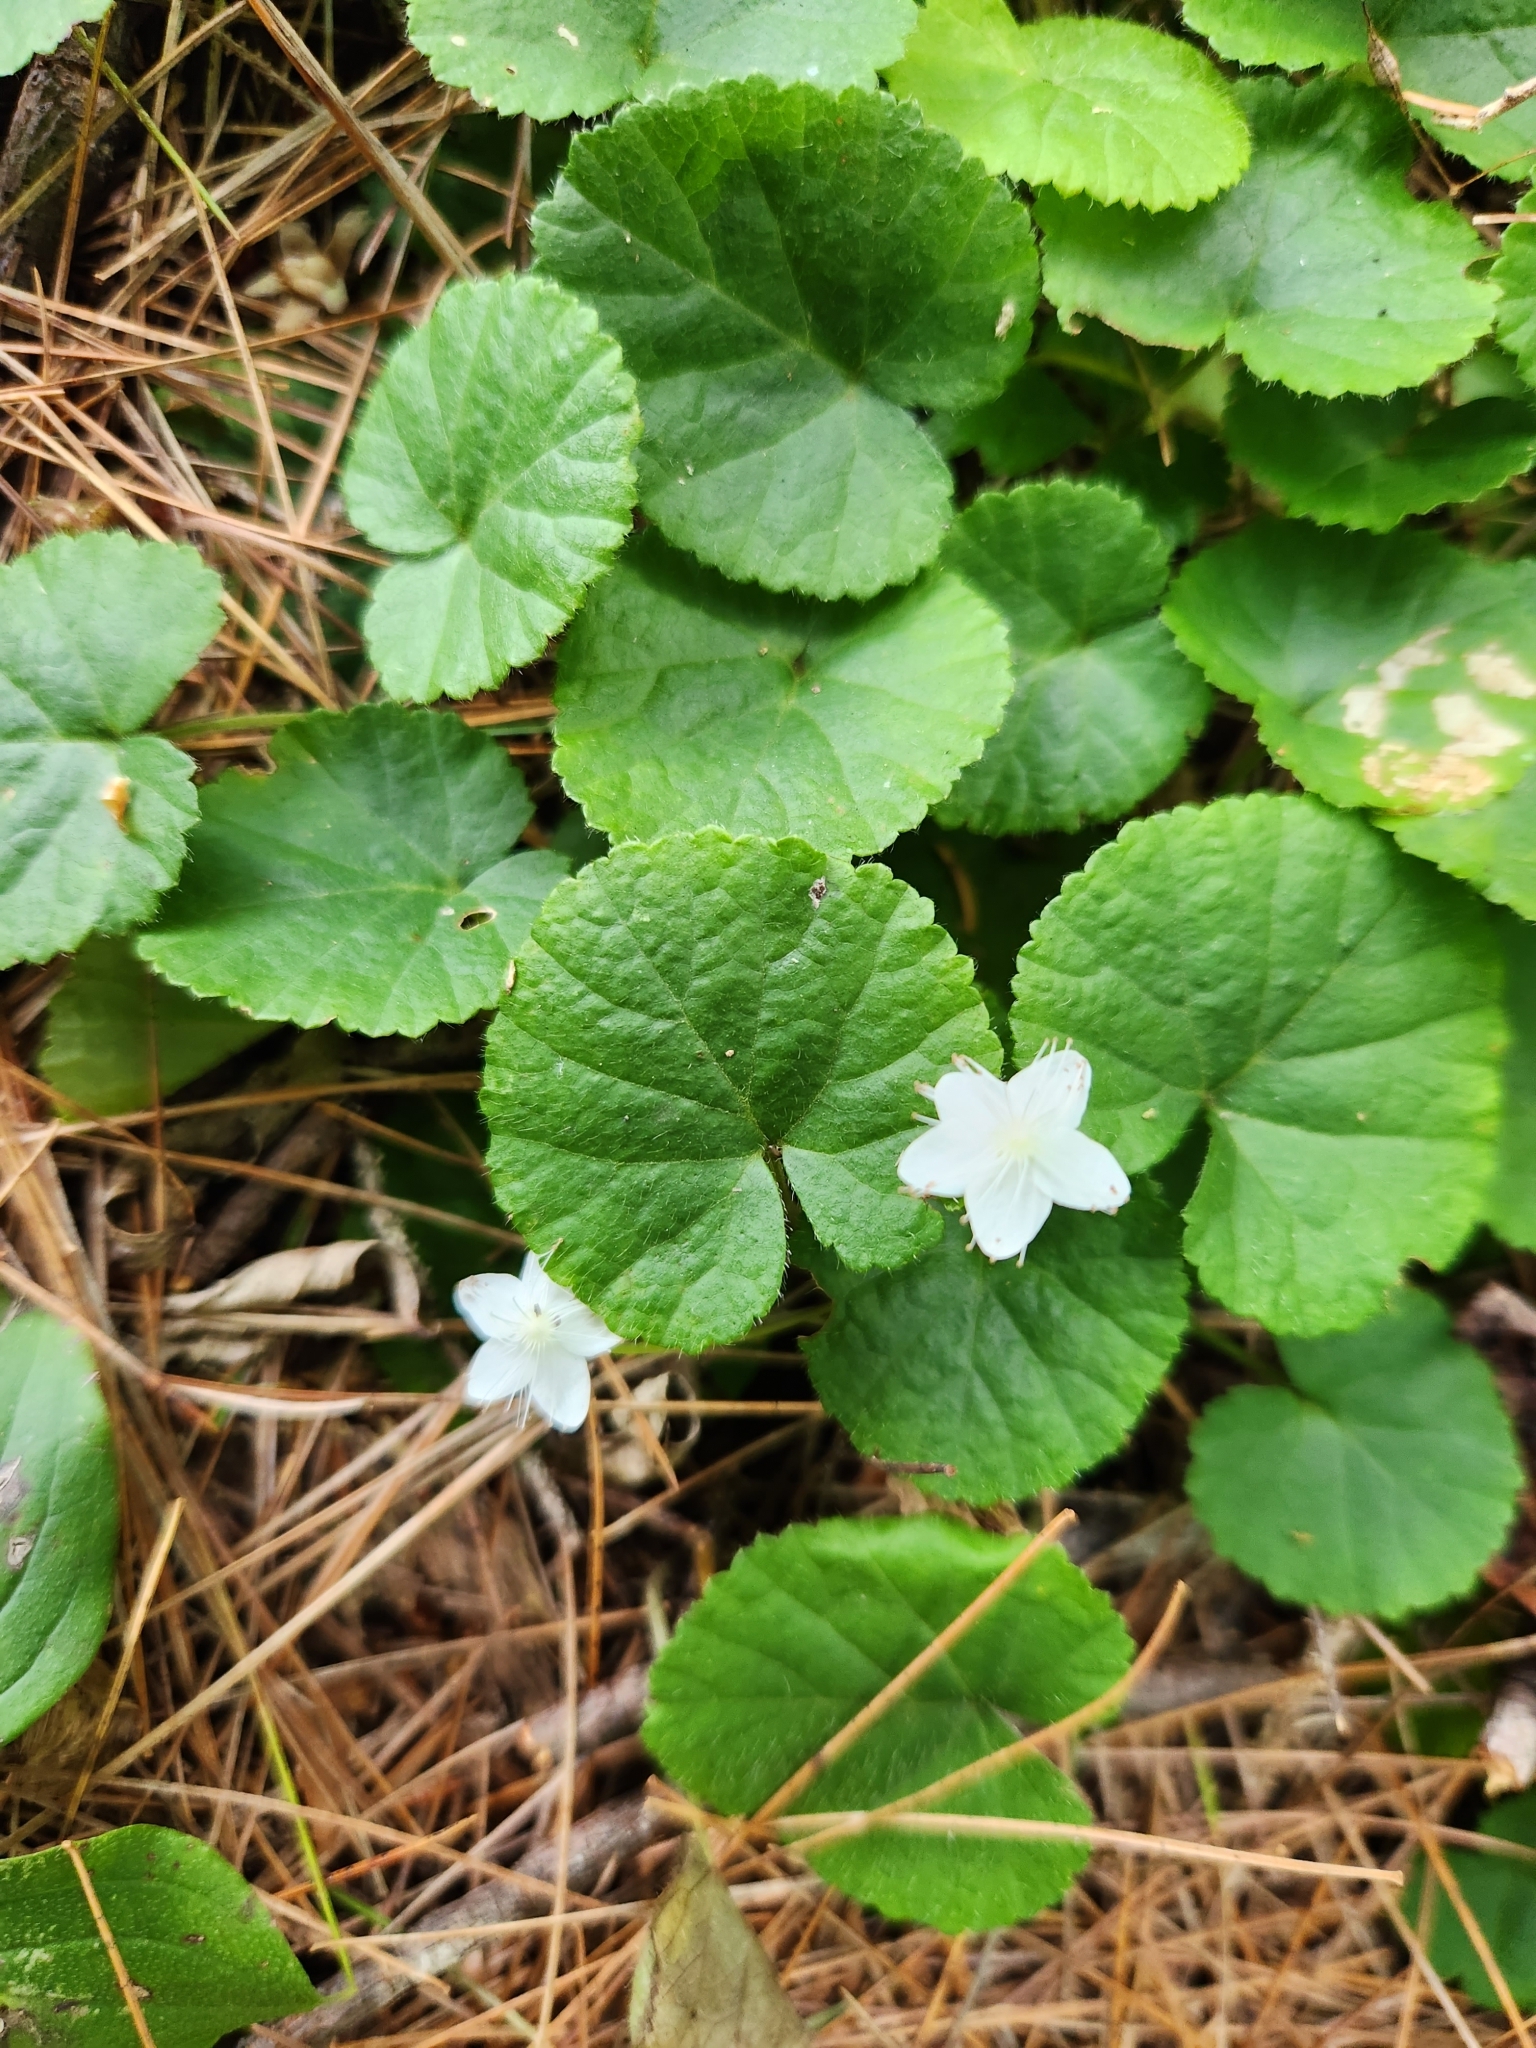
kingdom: Plantae
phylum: Tracheophyta
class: Magnoliopsida
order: Rosales
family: Rosaceae
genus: Dalibarda
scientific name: Dalibarda repens
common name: Dewdrop
